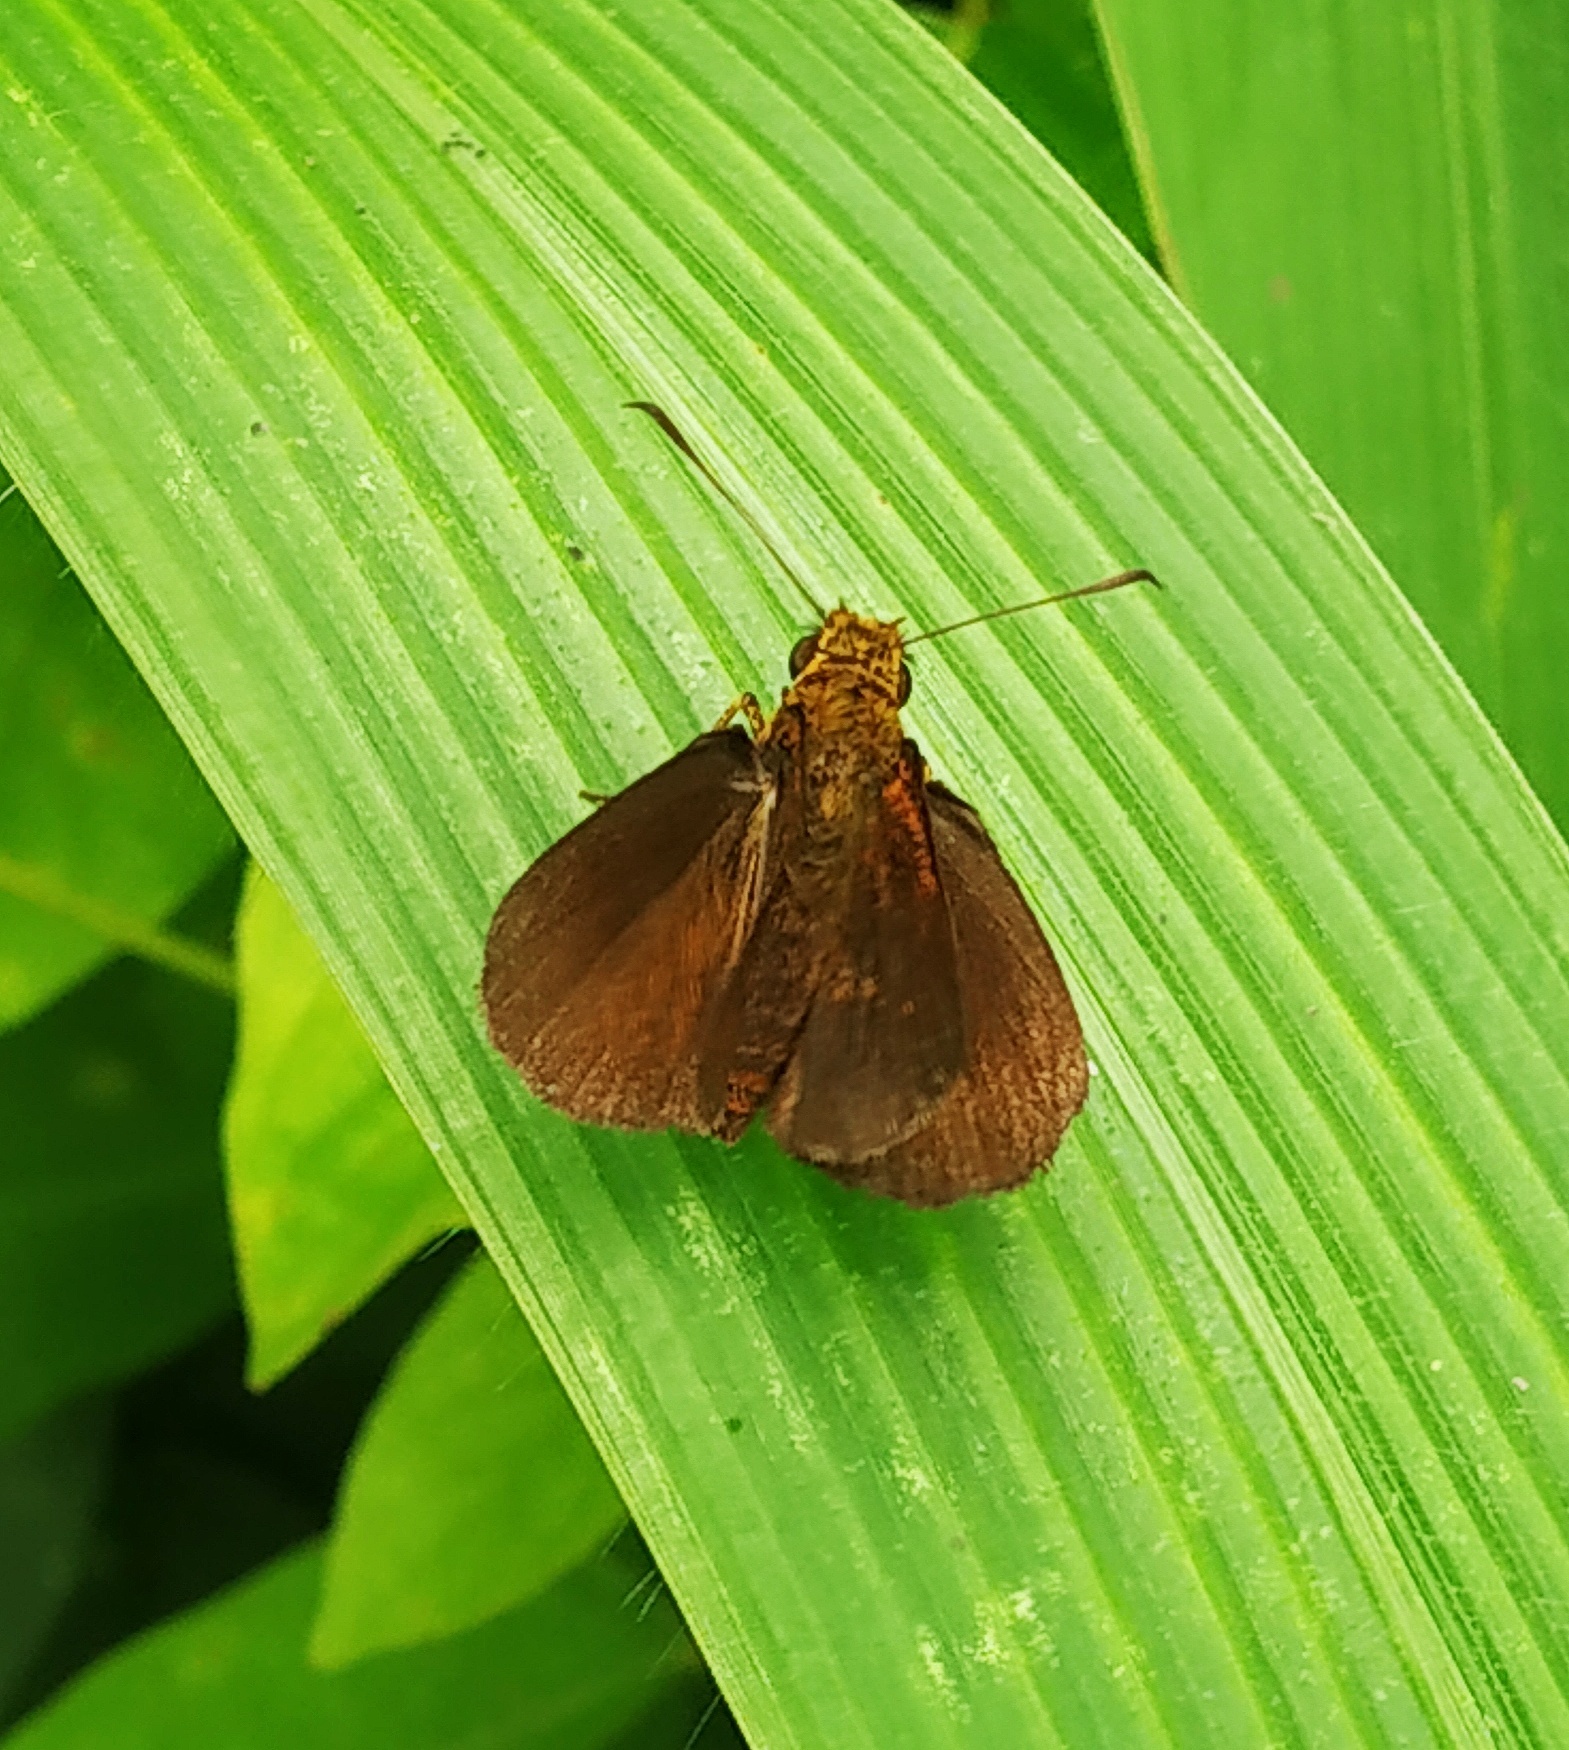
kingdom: Animalia
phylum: Arthropoda
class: Insecta
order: Lepidoptera
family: Hesperiidae
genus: Iambrix
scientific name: Iambrix salsala
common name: Chestnut bob
